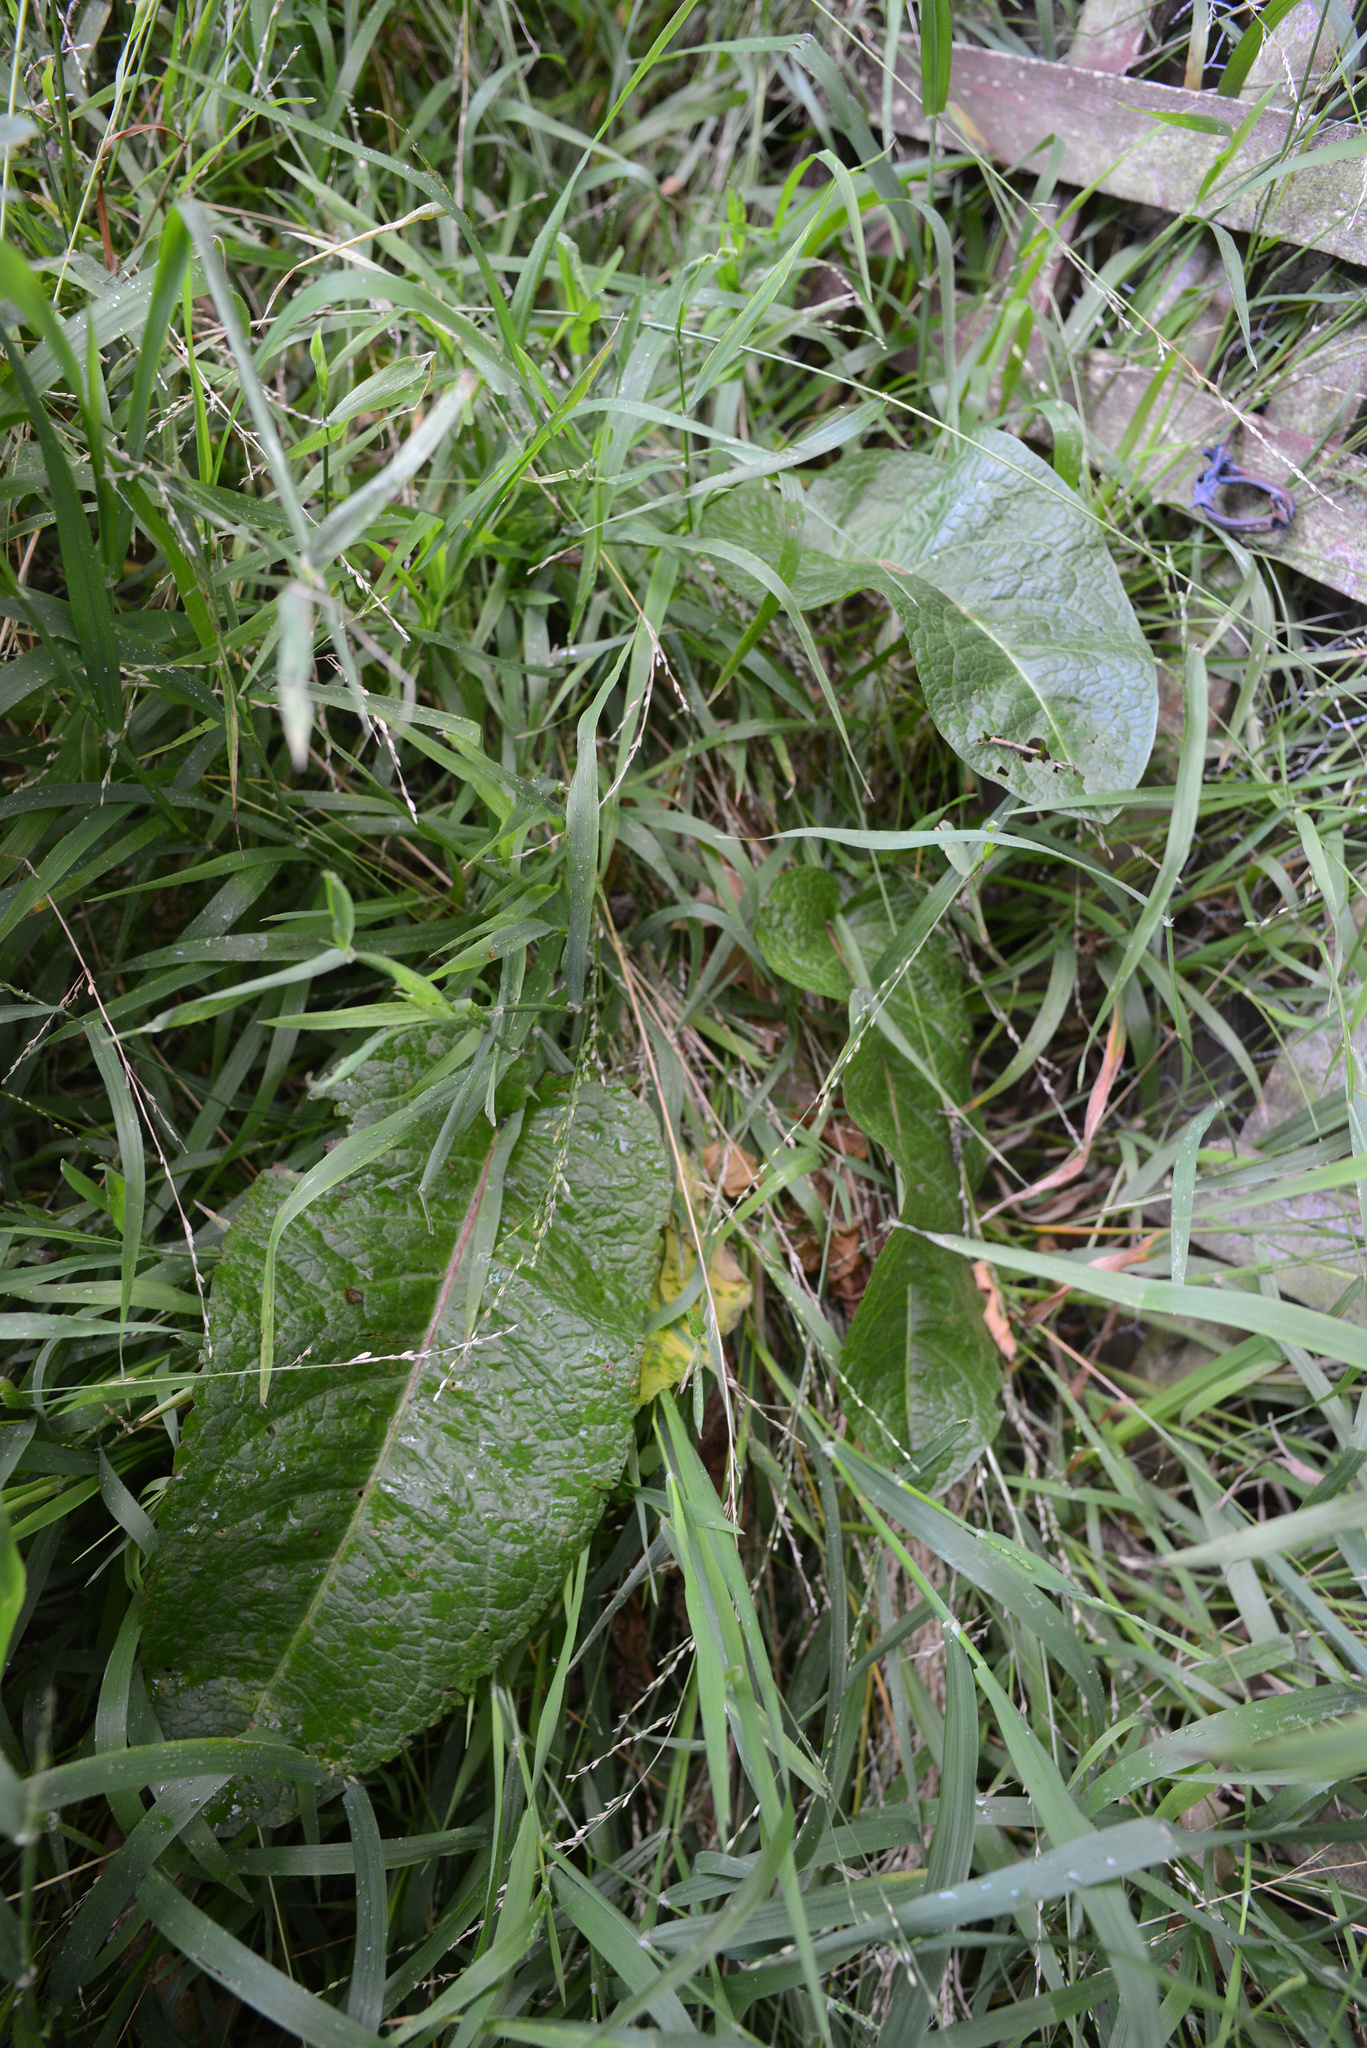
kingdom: Plantae
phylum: Tracheophyta
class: Magnoliopsida
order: Caryophyllales
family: Polygonaceae
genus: Rumex
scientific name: Rumex obtusifolius
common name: Bitter dock
